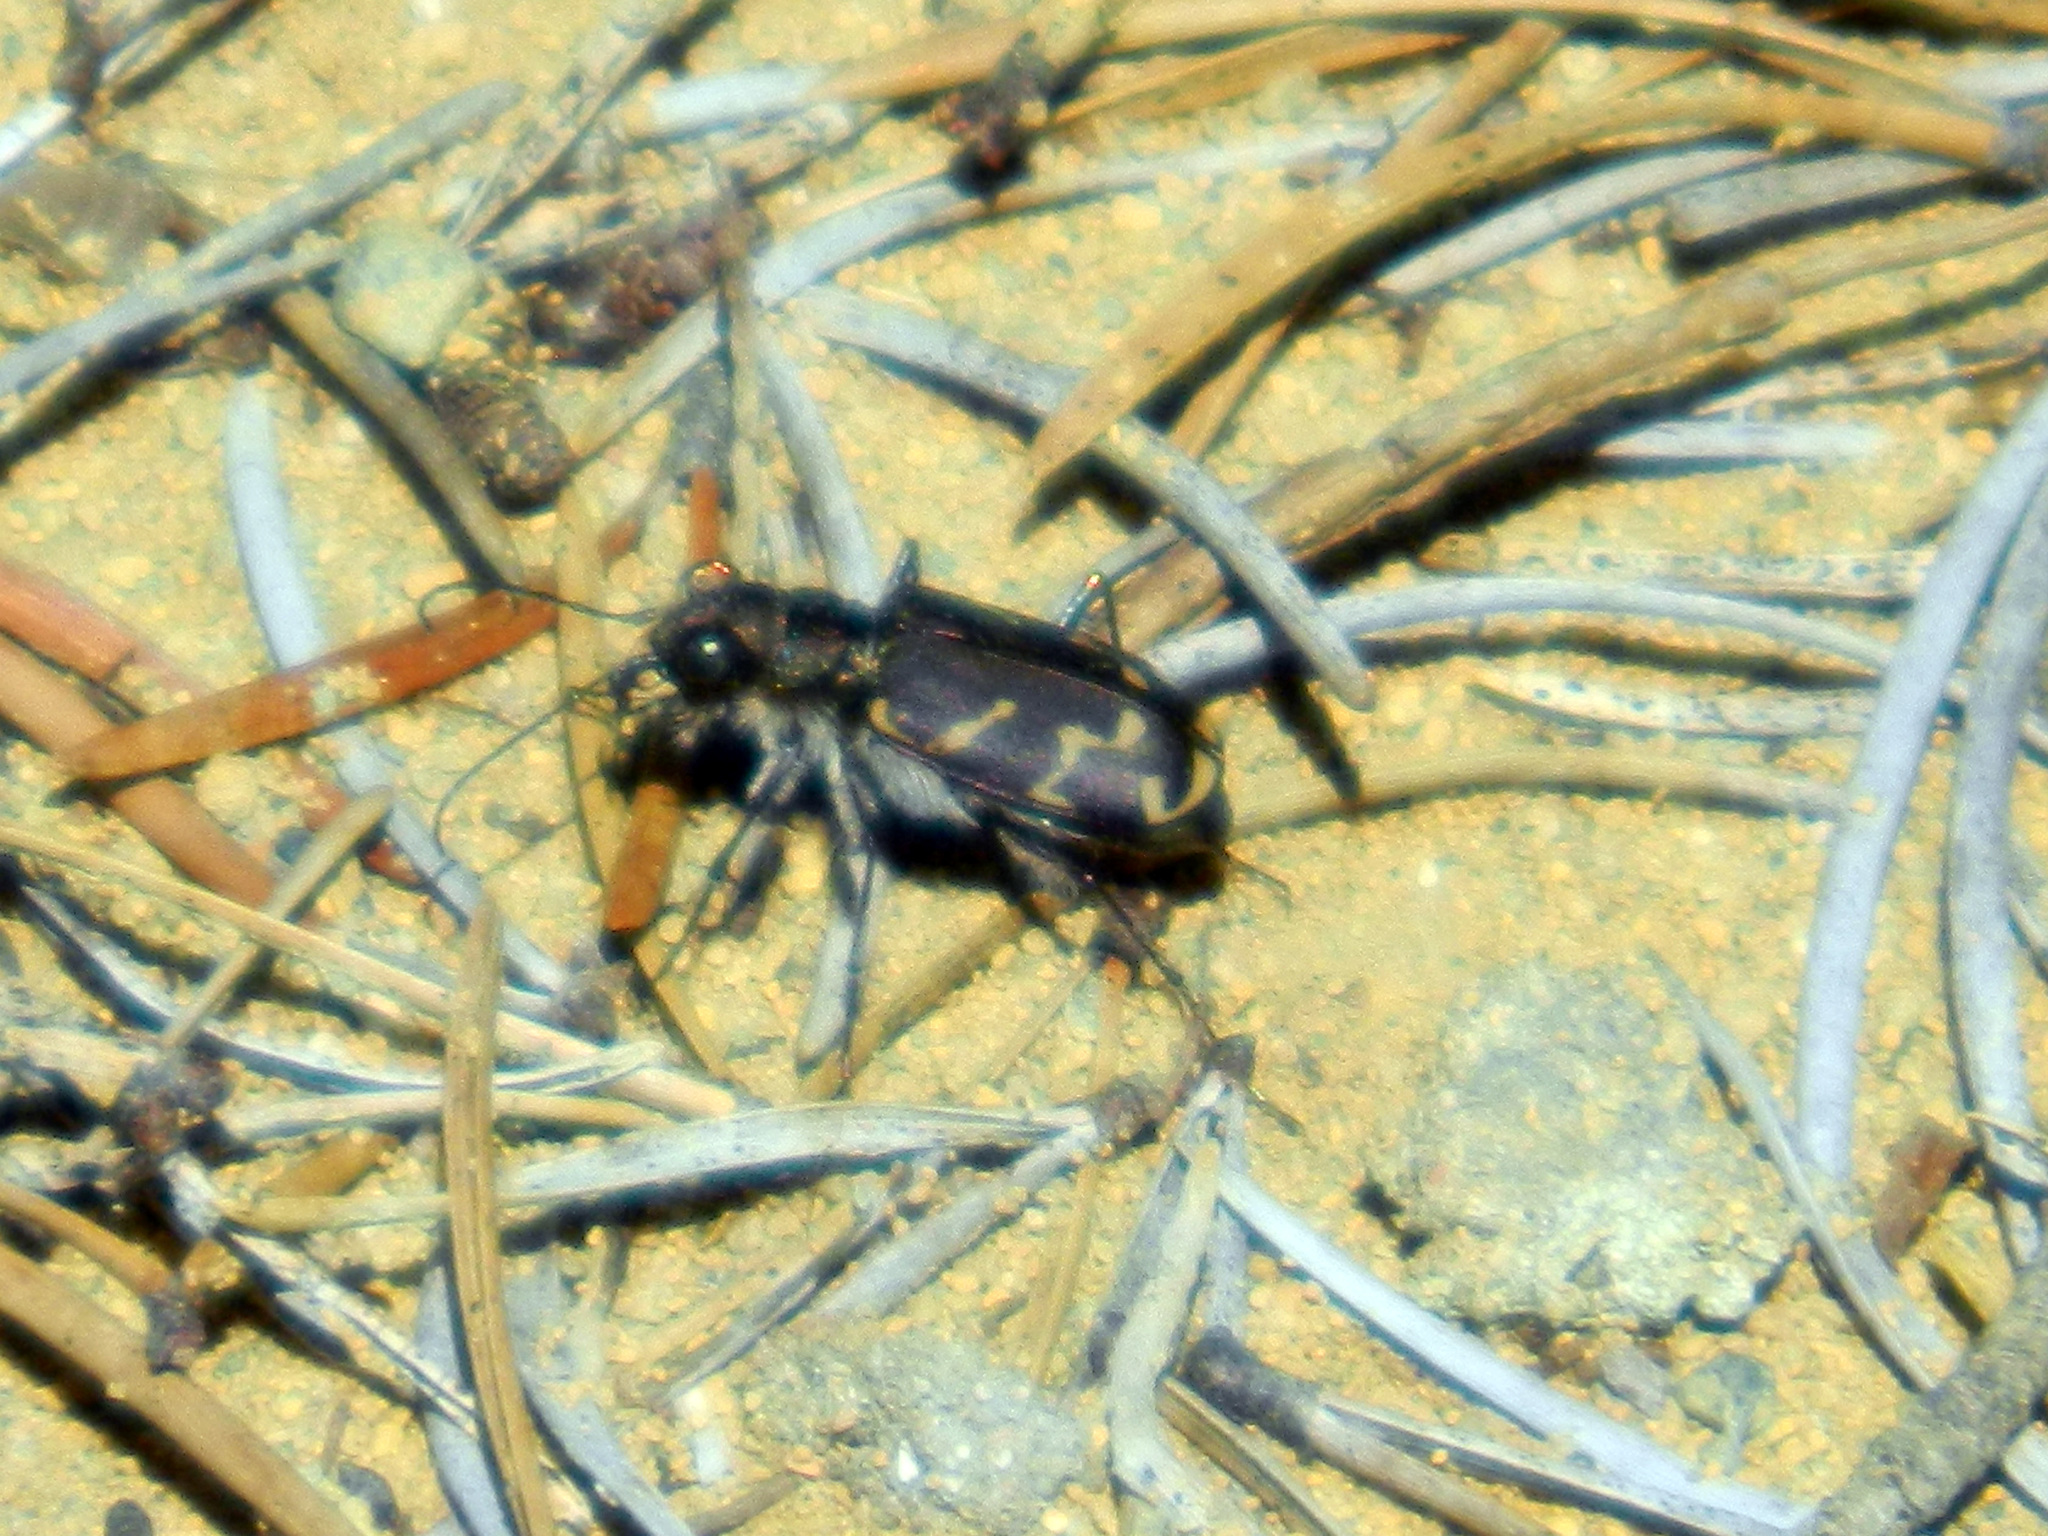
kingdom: Animalia
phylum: Arthropoda
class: Insecta
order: Coleoptera
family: Carabidae
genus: Cicindela
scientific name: Cicindela tranquebarica
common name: Oblique-lined tiger beetle
